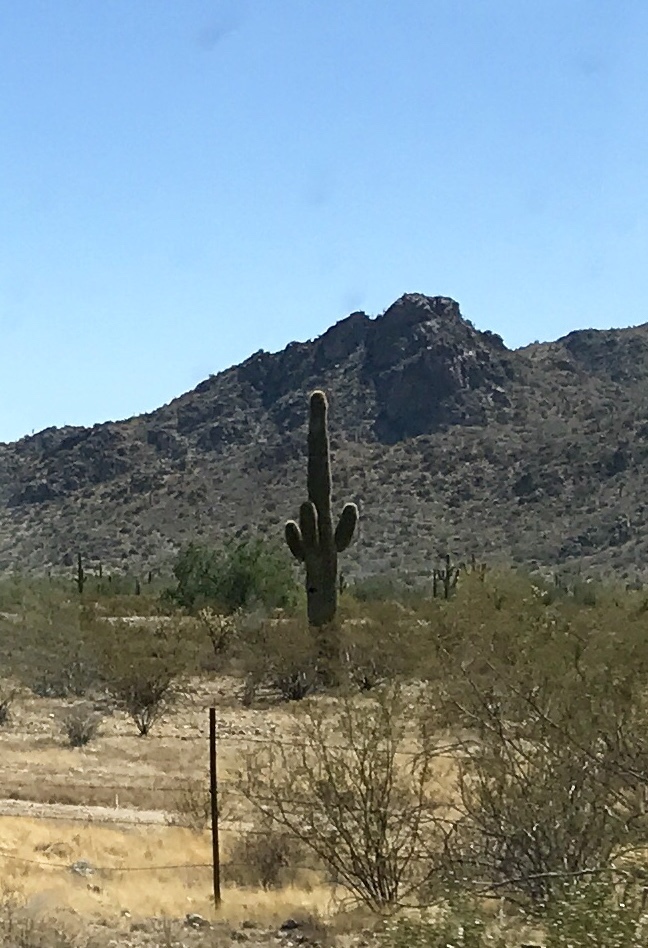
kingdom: Plantae
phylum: Tracheophyta
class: Magnoliopsida
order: Caryophyllales
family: Cactaceae
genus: Carnegiea
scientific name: Carnegiea gigantea
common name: Saguaro
